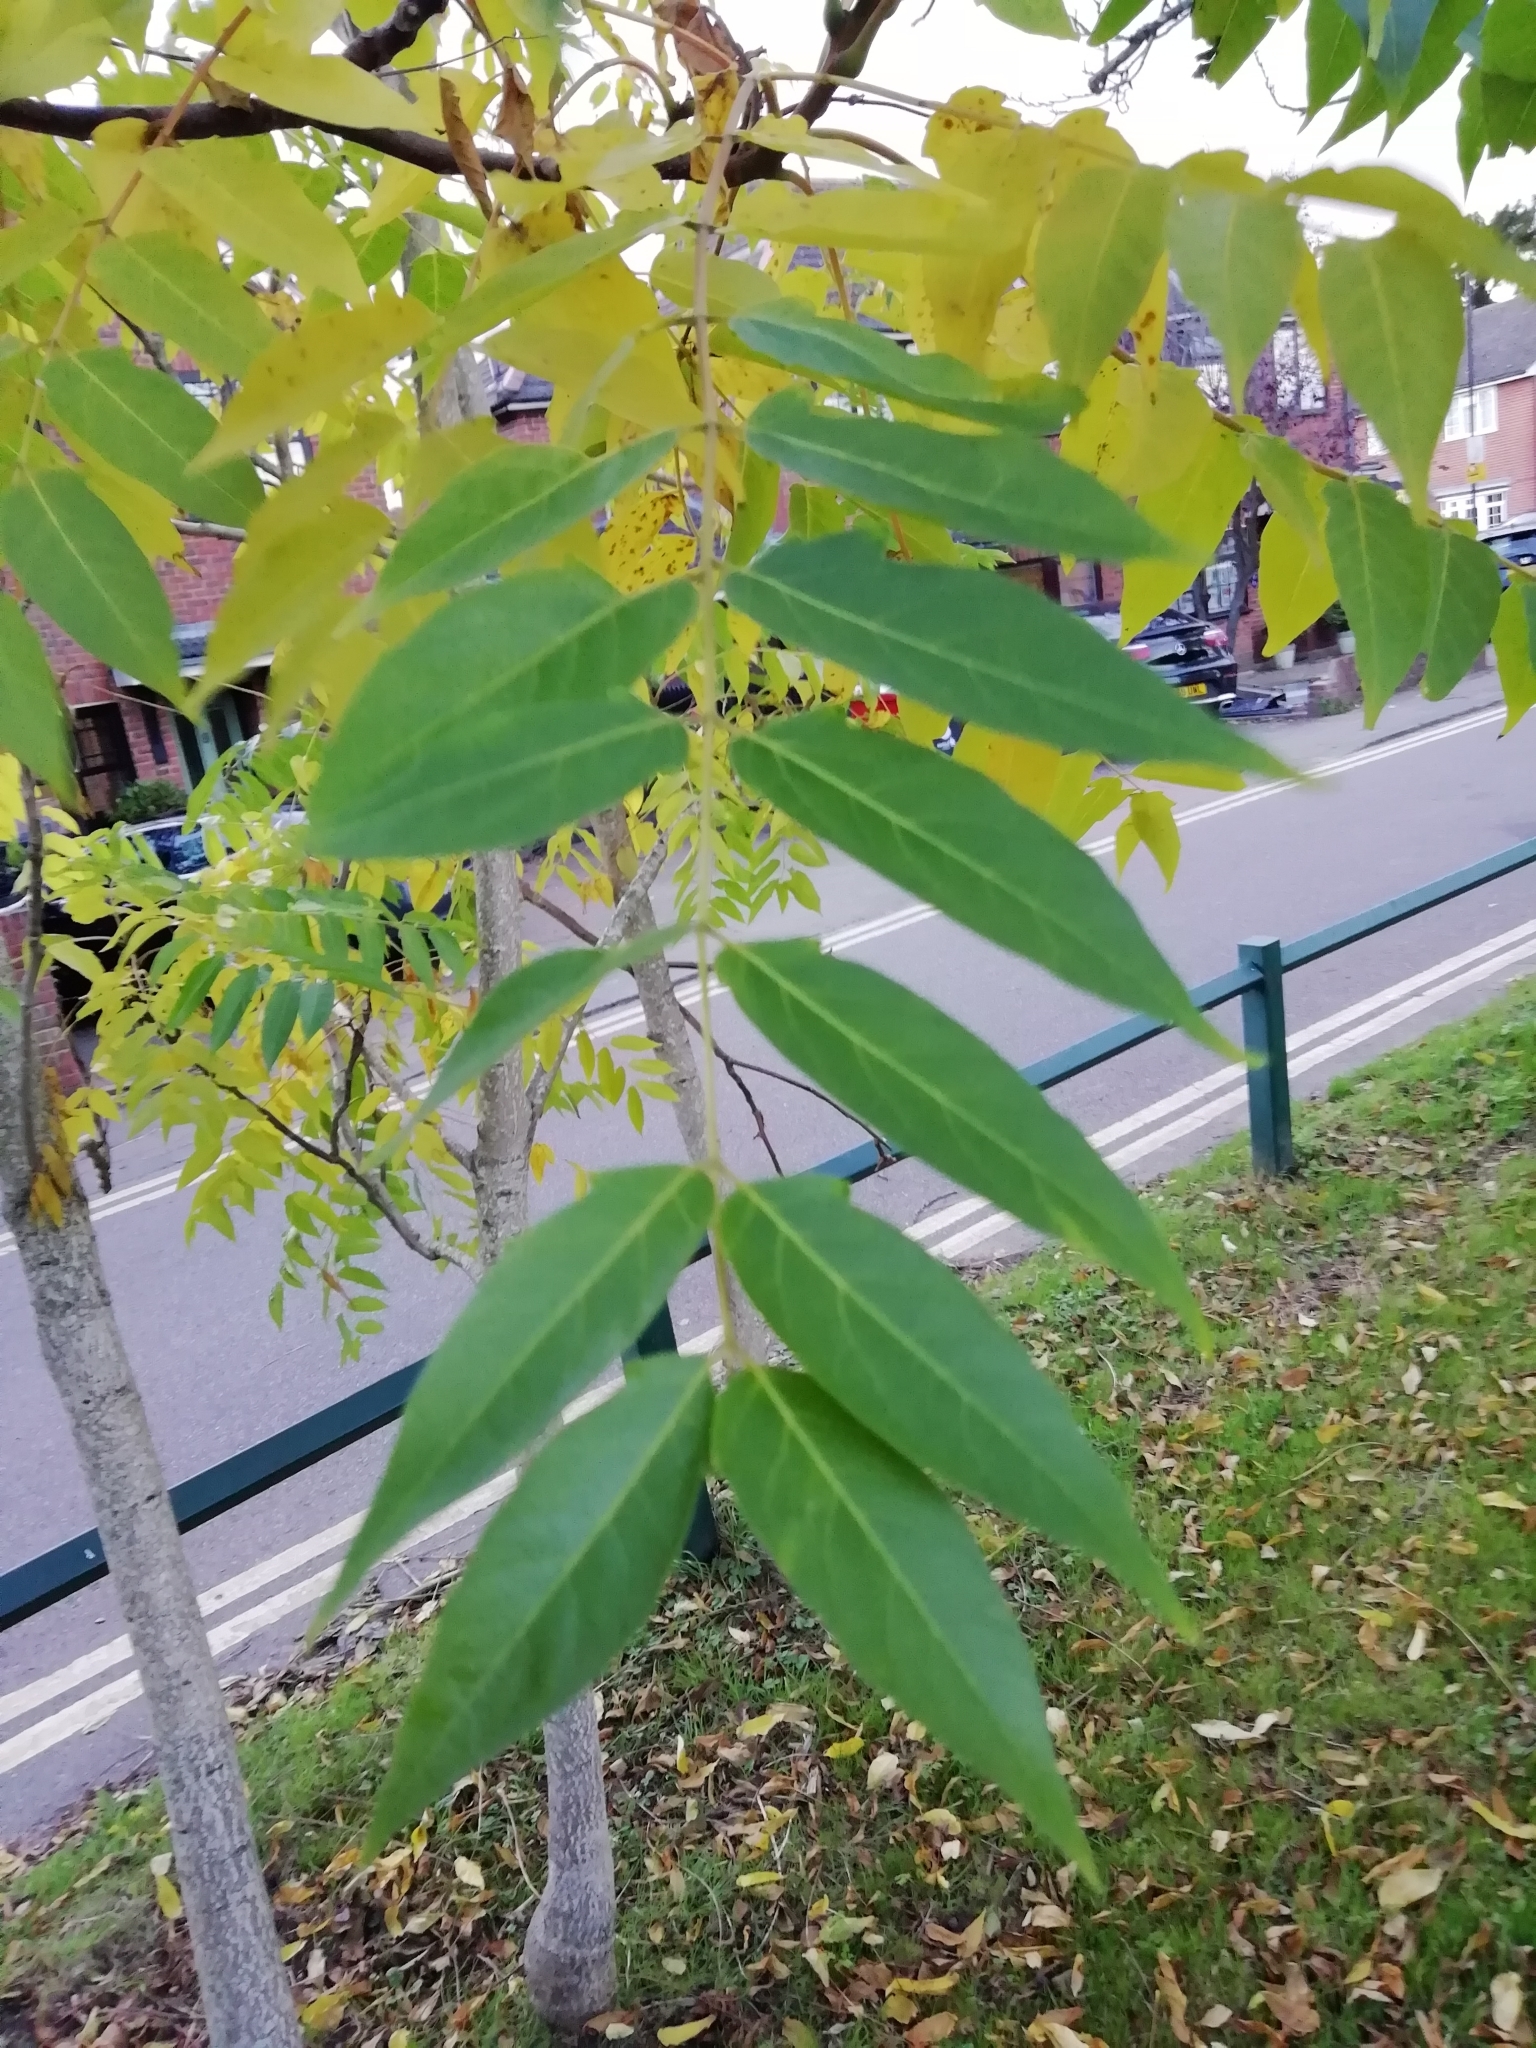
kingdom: Plantae
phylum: Tracheophyta
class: Magnoliopsida
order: Sapindales
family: Simaroubaceae
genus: Ailanthus
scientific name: Ailanthus altissima
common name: Tree-of-heaven
